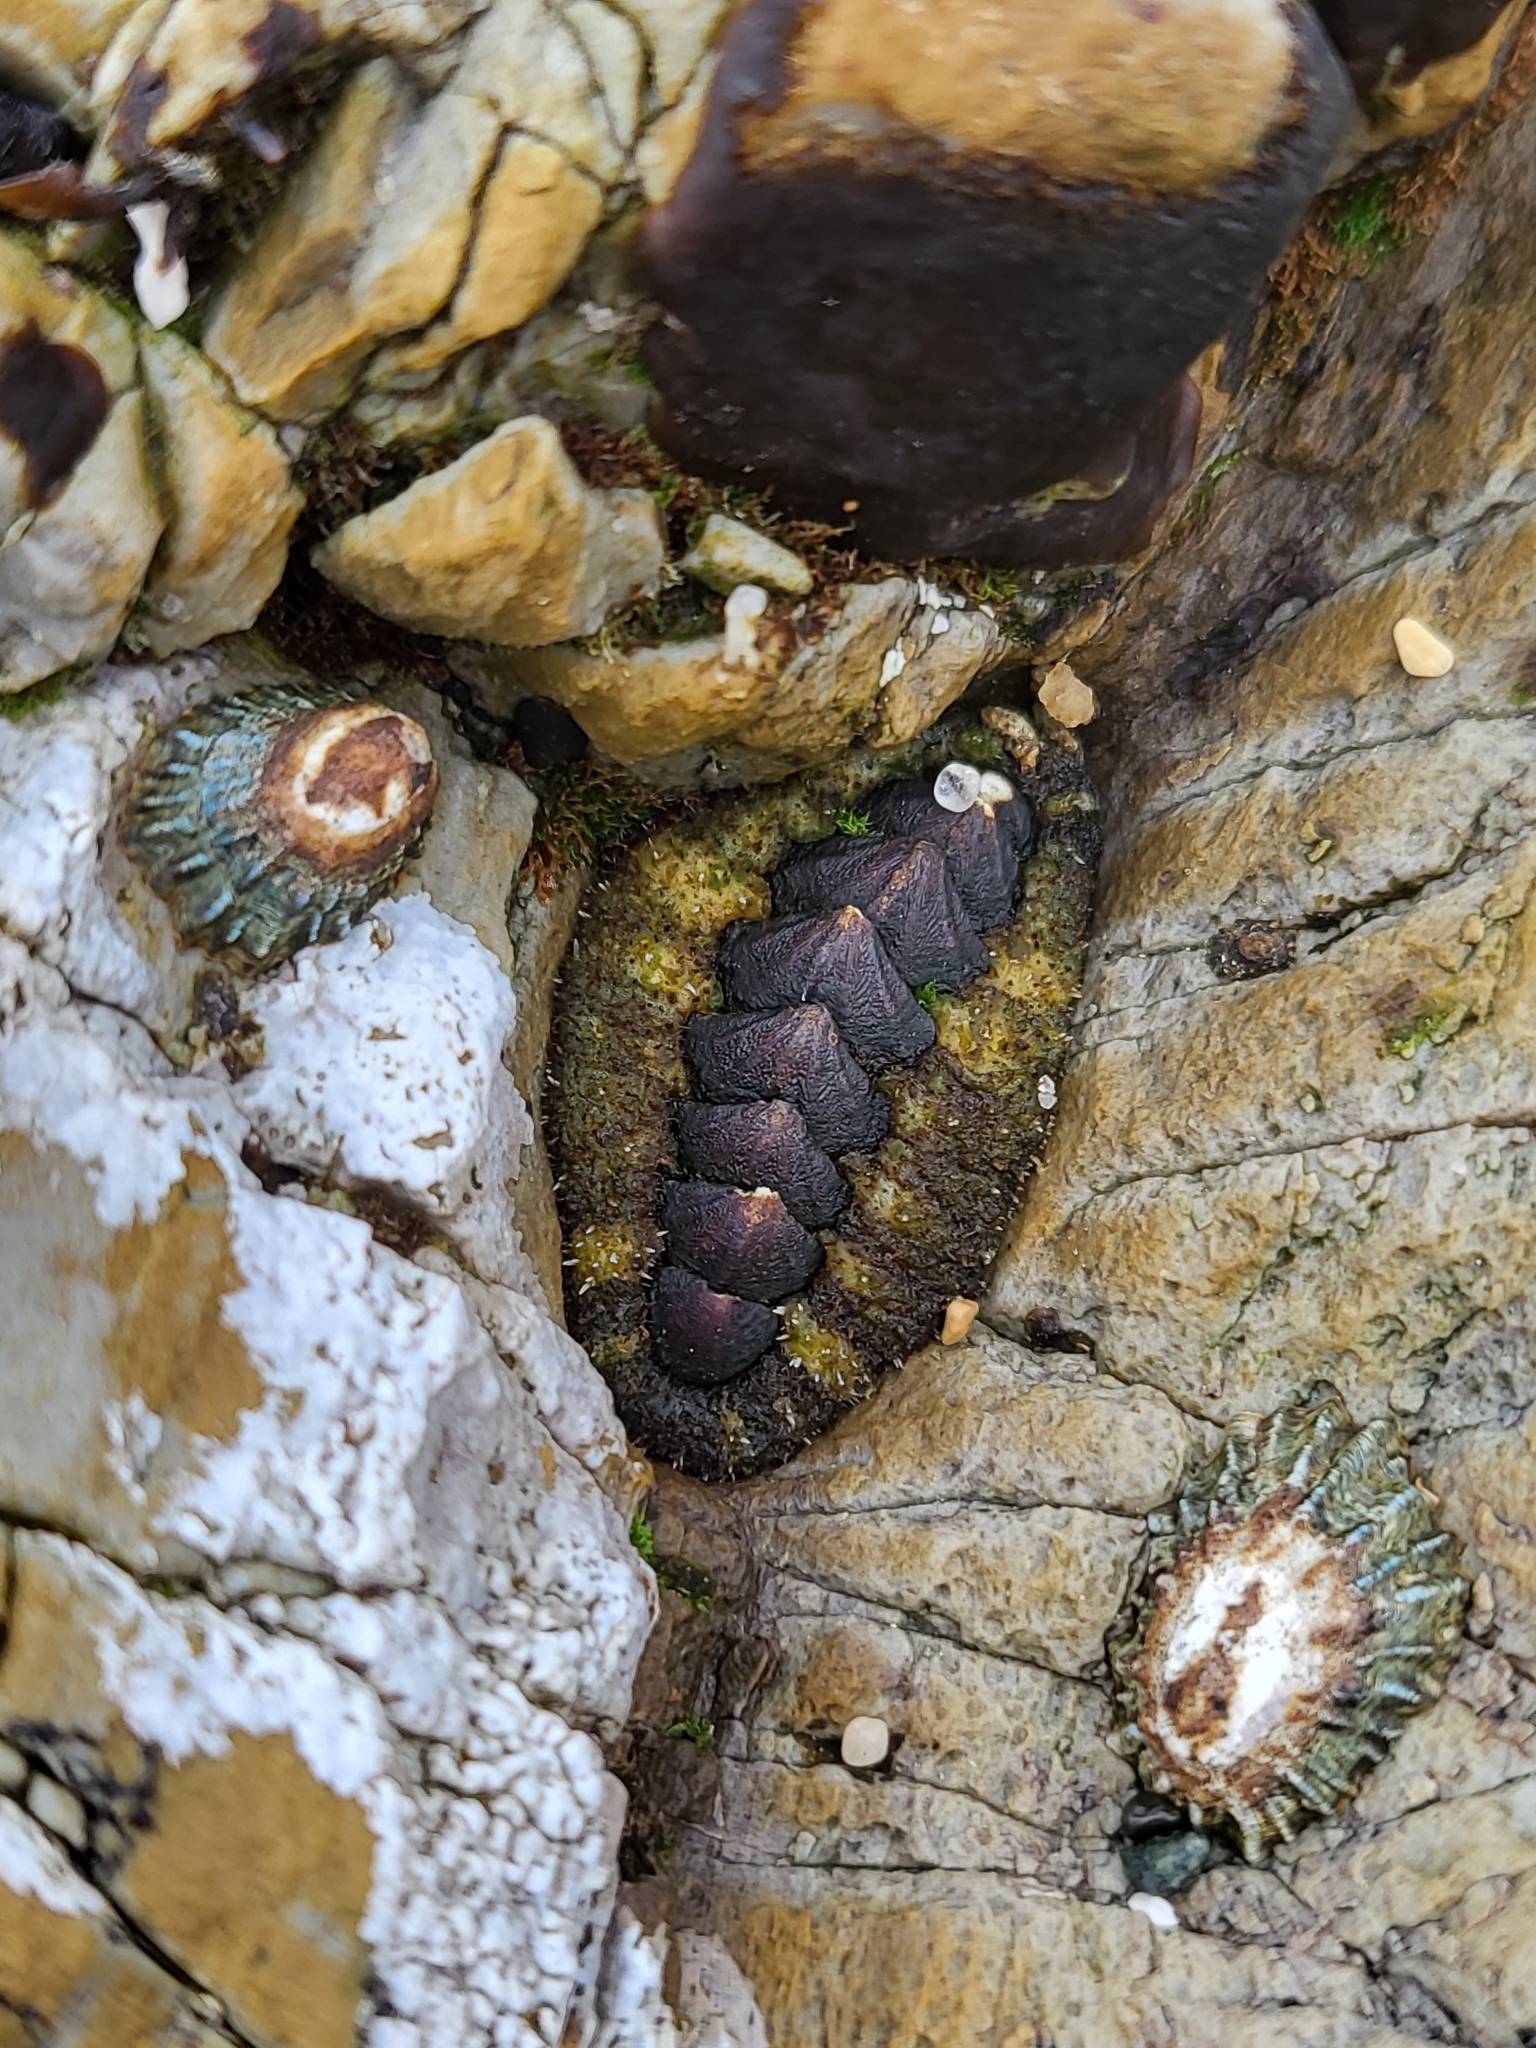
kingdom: Animalia
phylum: Mollusca
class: Polyplacophora
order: Chitonida
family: Tonicellidae
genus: Nuttallina
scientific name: Nuttallina californica
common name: California nuttall chiton
